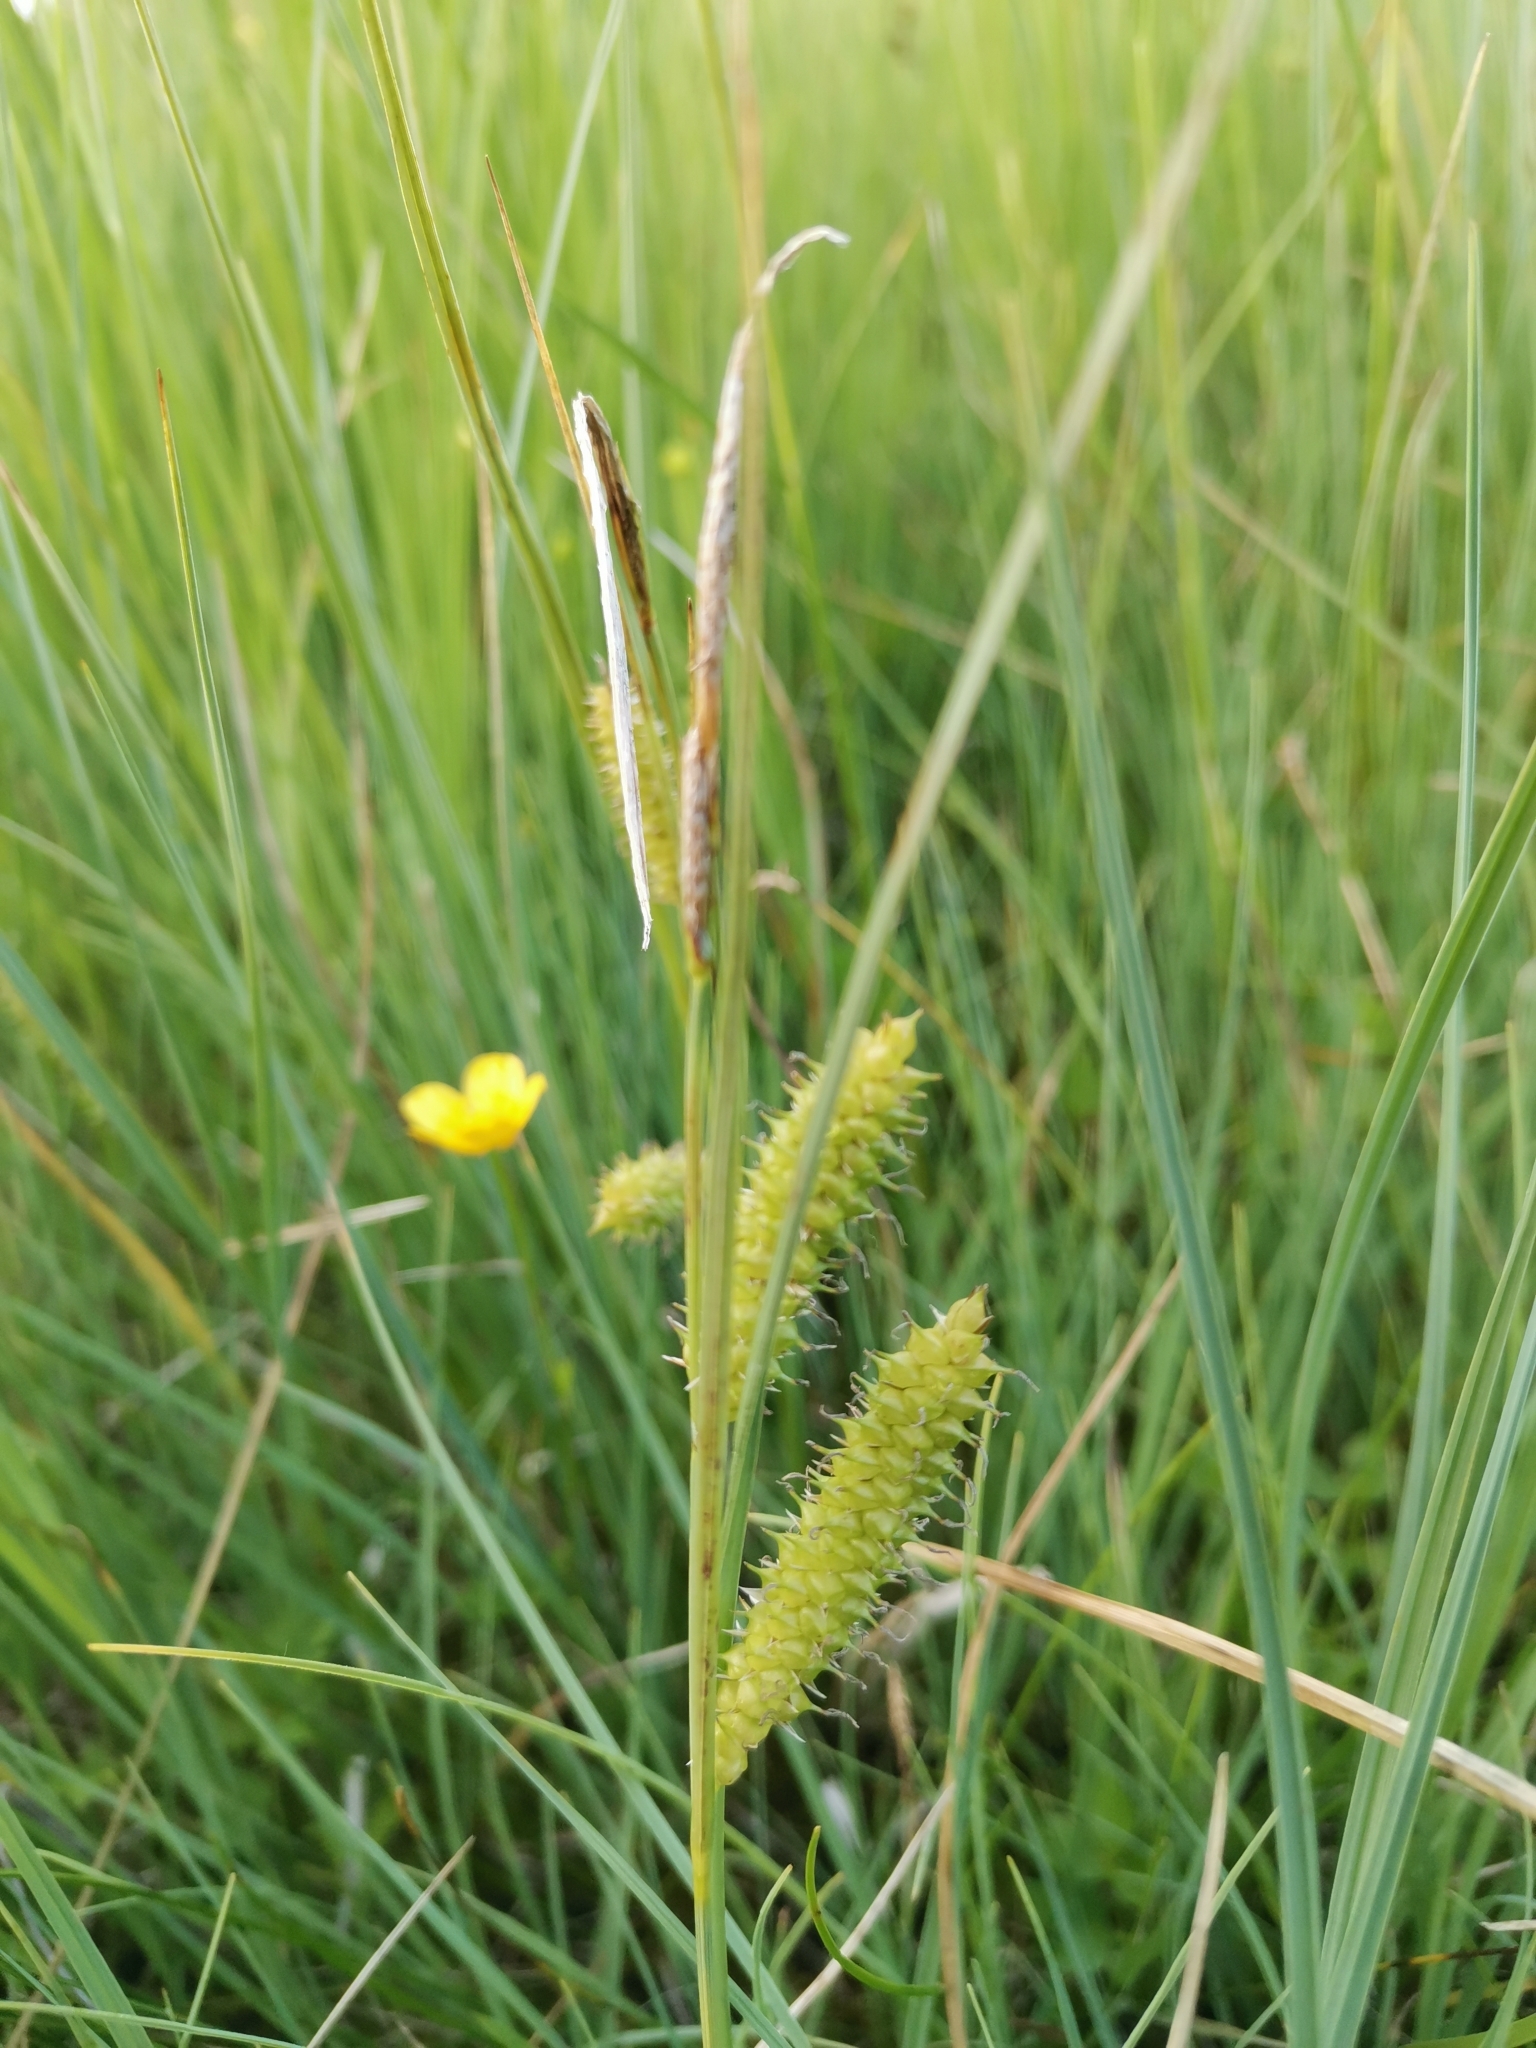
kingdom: Plantae
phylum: Tracheophyta
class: Liliopsida
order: Poales
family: Cyperaceae
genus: Carex
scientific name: Carex rostrata
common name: Bottle sedge
